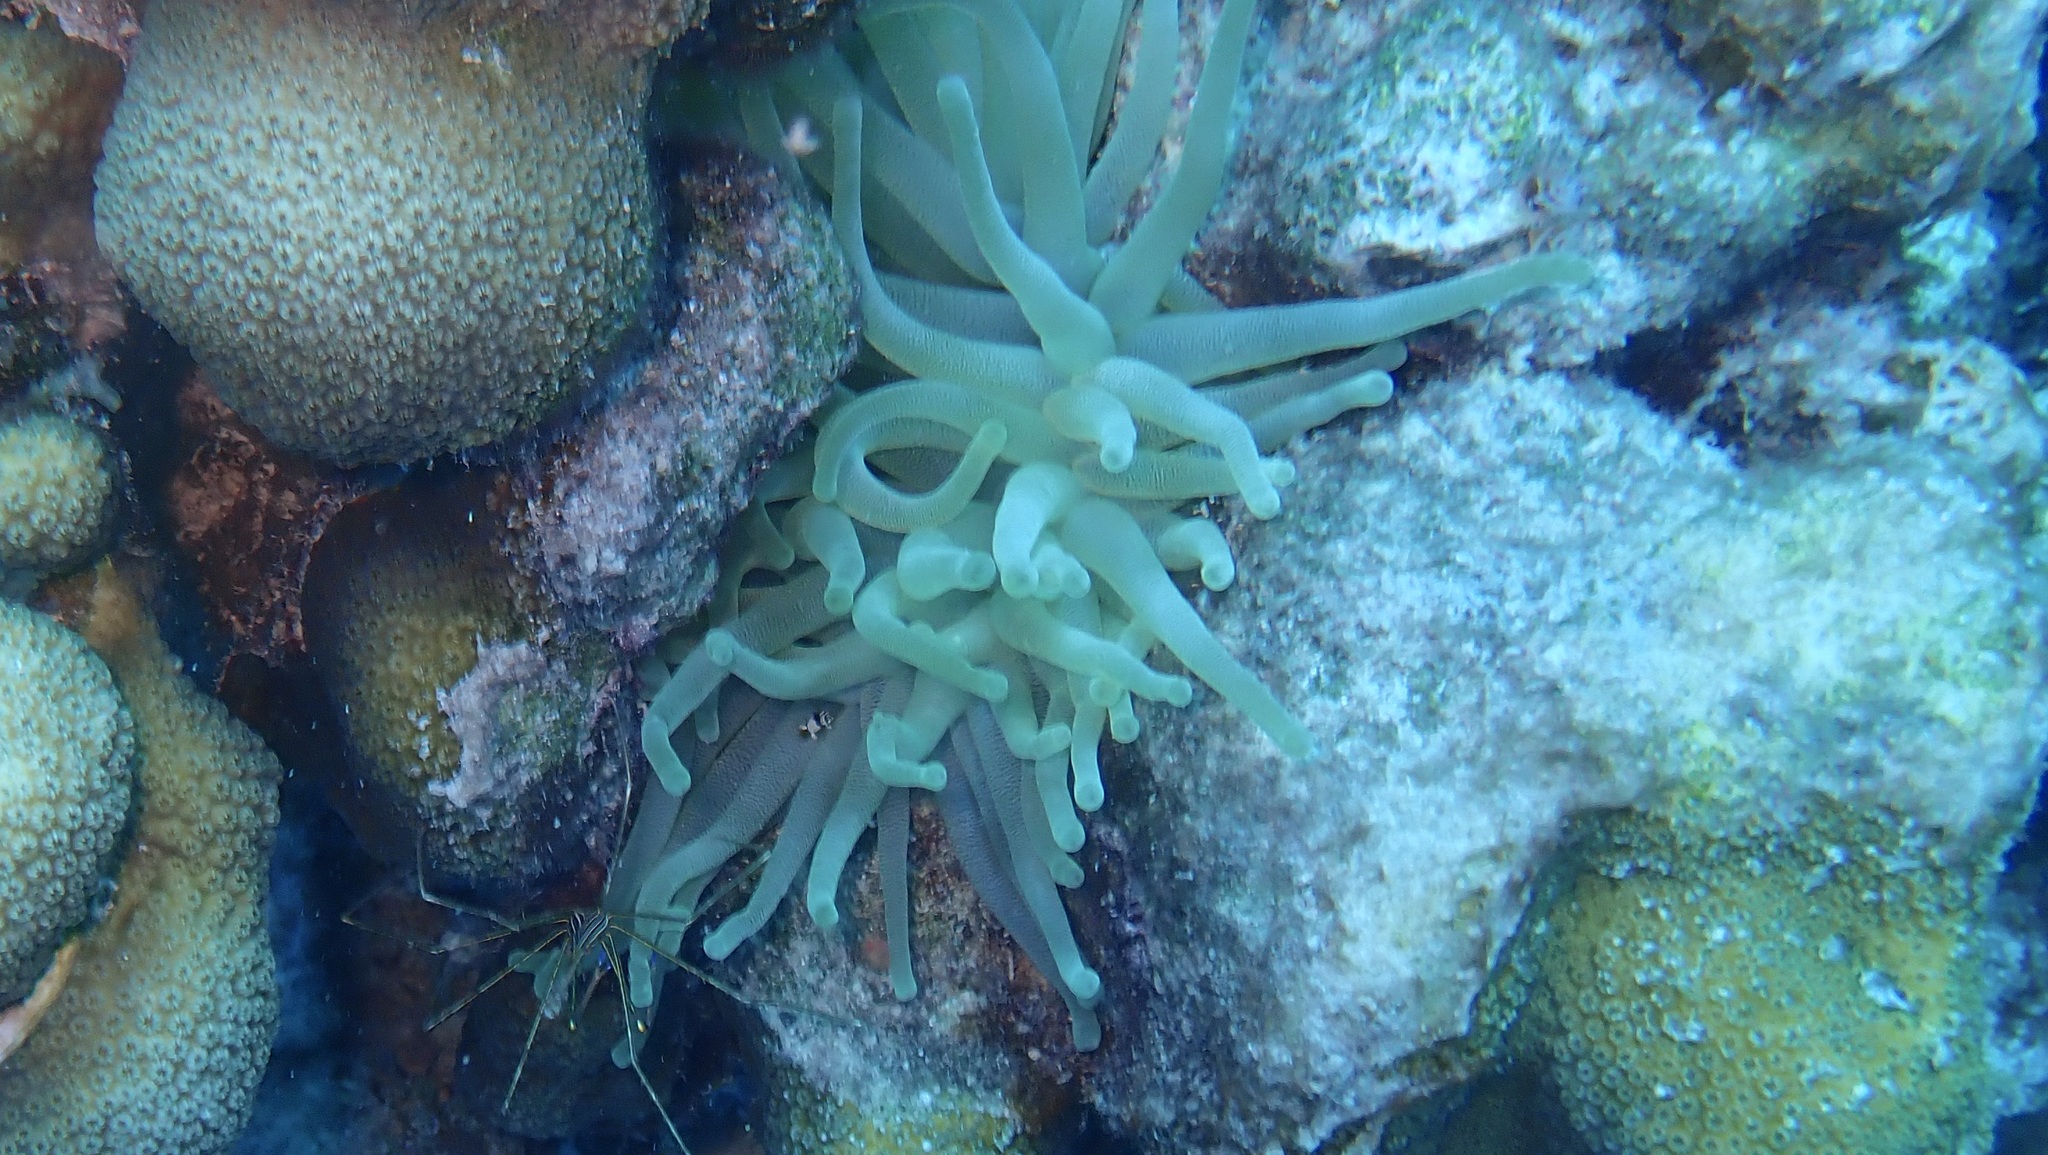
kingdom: Animalia
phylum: Cnidaria
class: Anthozoa
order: Actiniaria
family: Actiniidae
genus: Condylactis
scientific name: Condylactis gigantea
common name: Giant caribbean anemone
